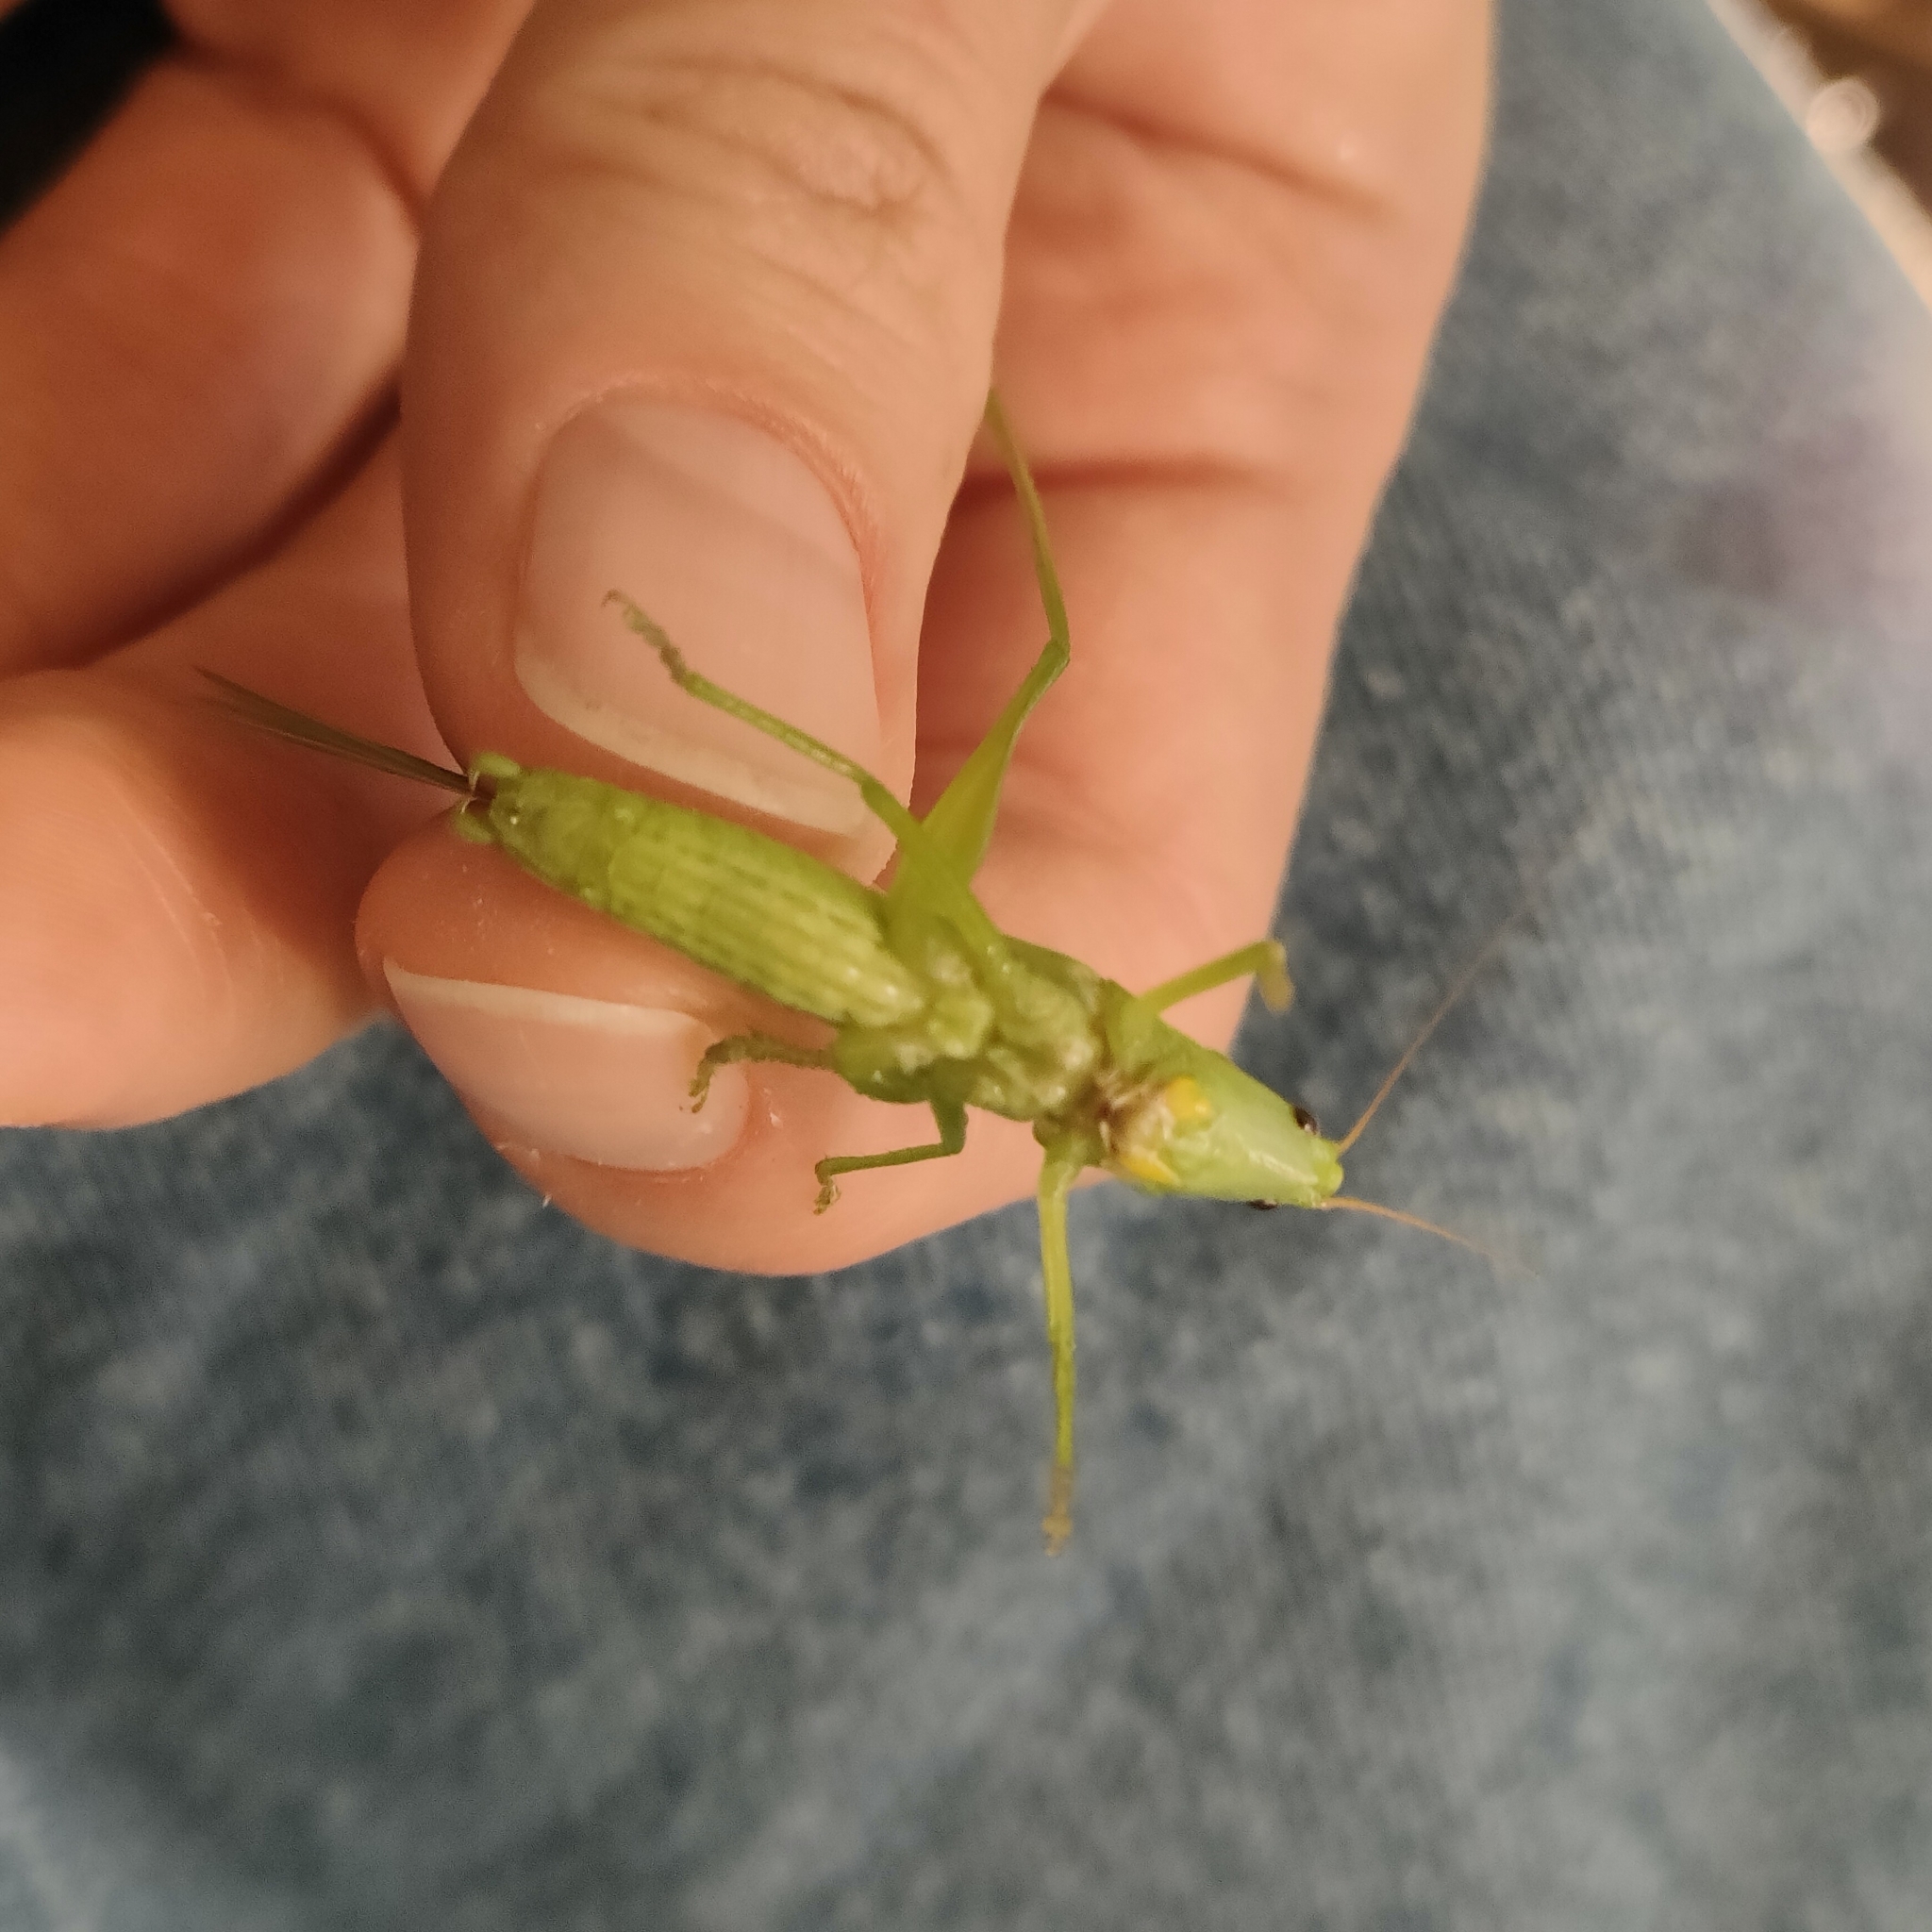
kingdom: Animalia
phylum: Arthropoda
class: Insecta
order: Orthoptera
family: Tettigoniidae
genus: Ruspolia
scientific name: Ruspolia nitidula
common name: Large conehead
